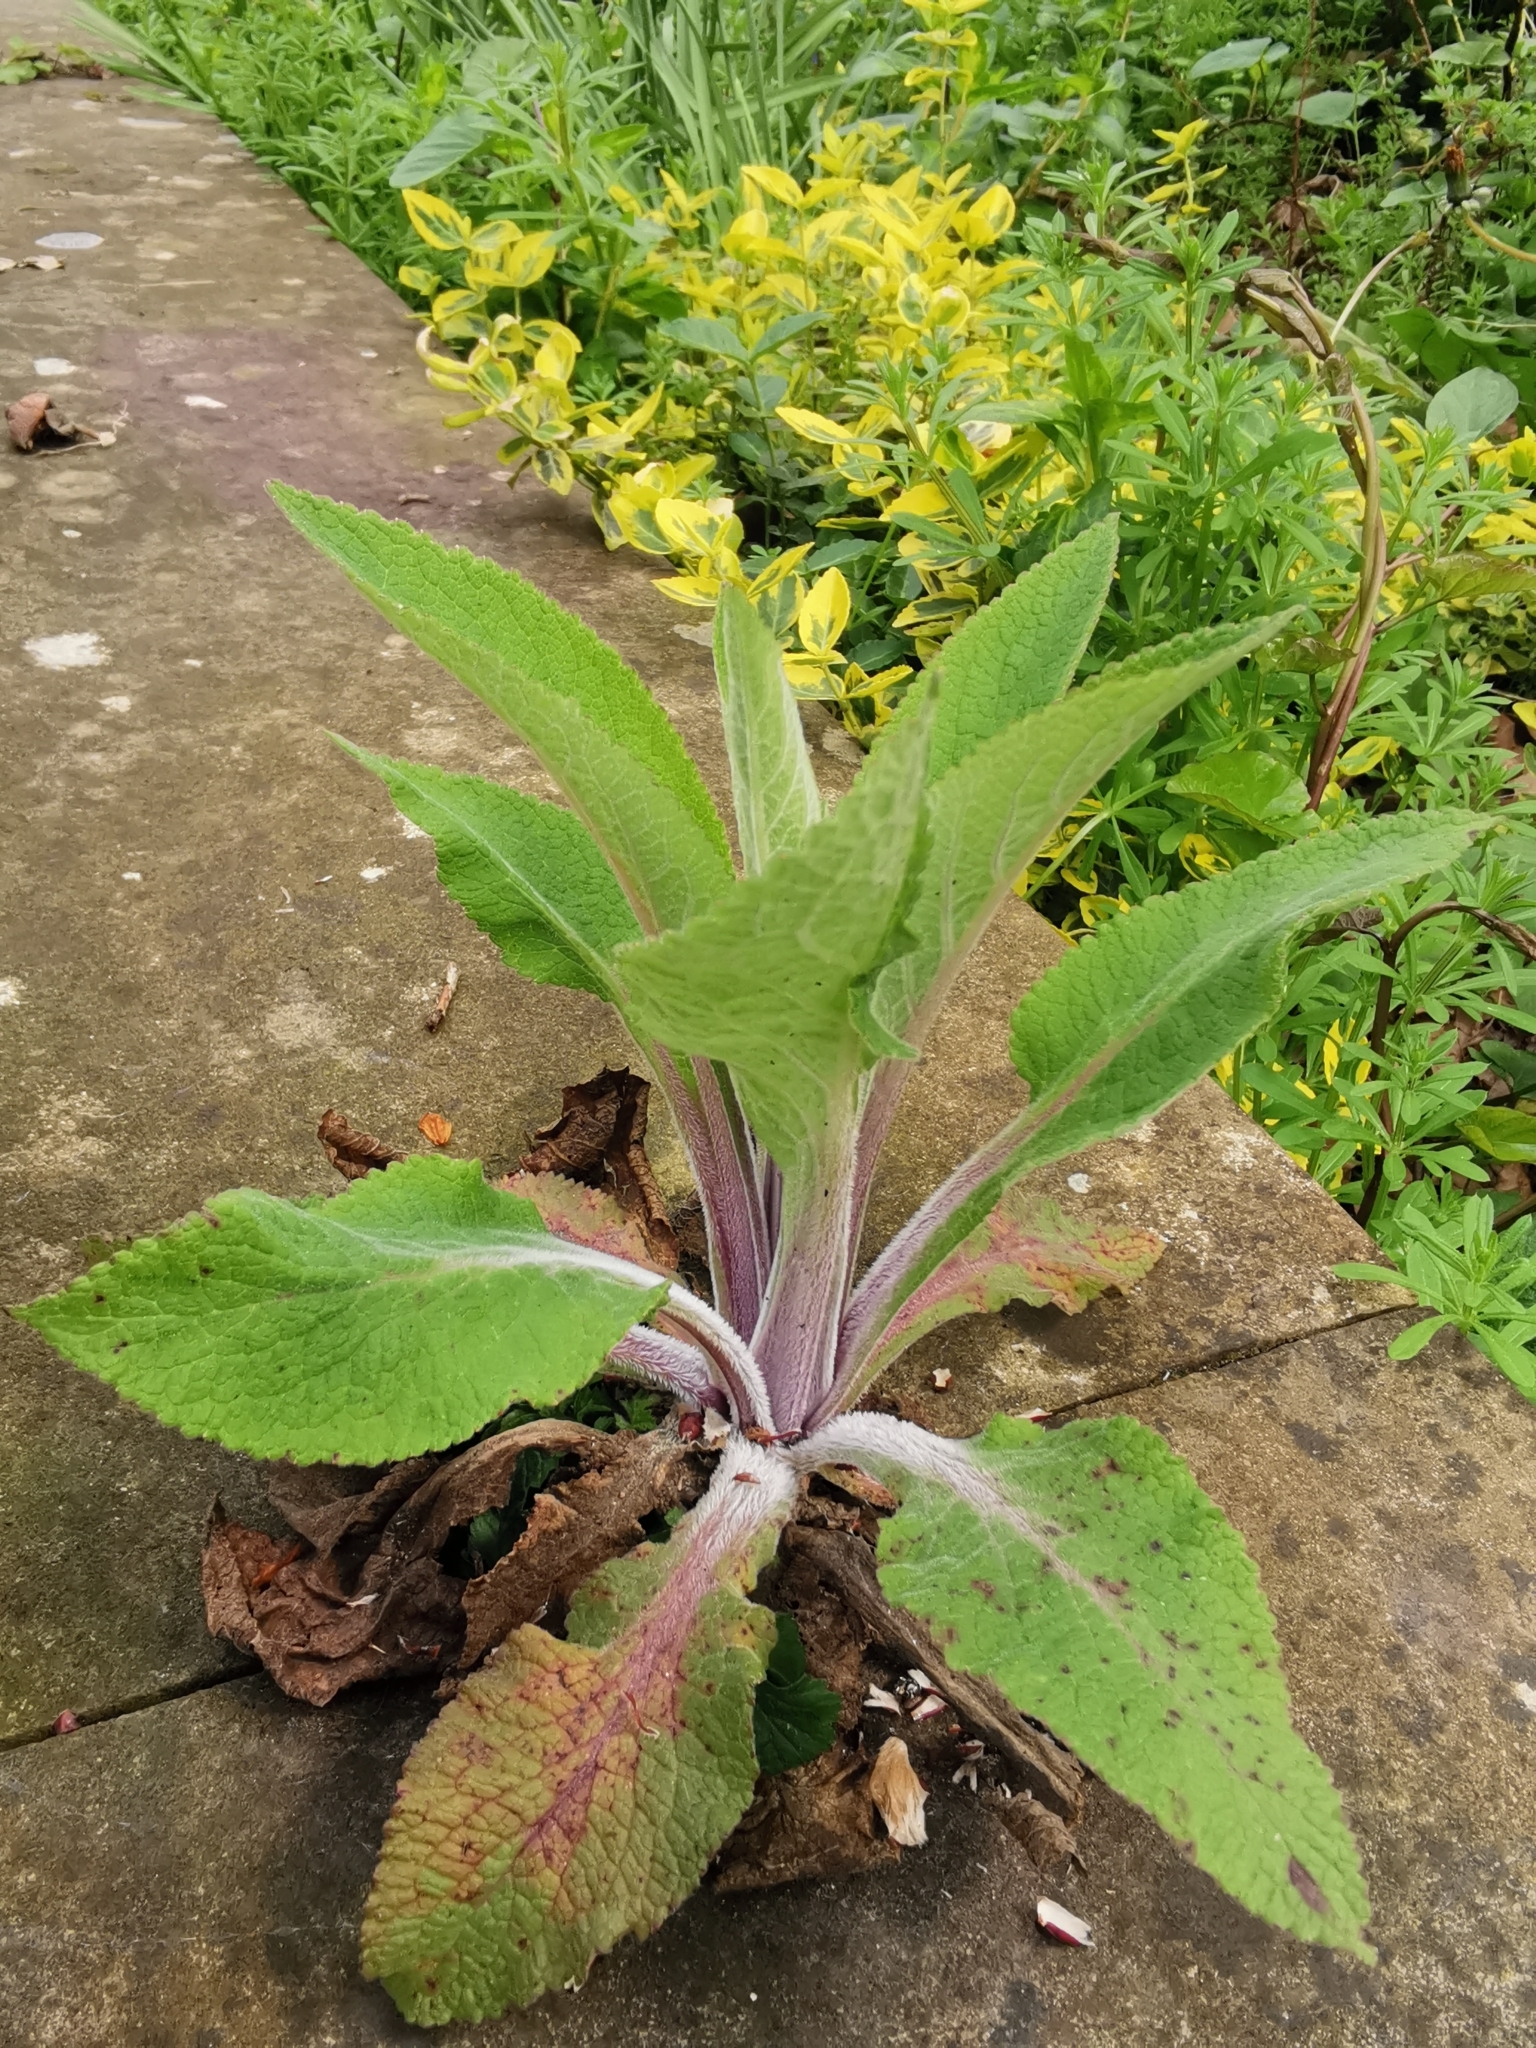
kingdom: Plantae
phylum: Tracheophyta
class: Magnoliopsida
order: Lamiales
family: Plantaginaceae
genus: Digitalis
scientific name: Digitalis purpurea
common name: Foxglove
